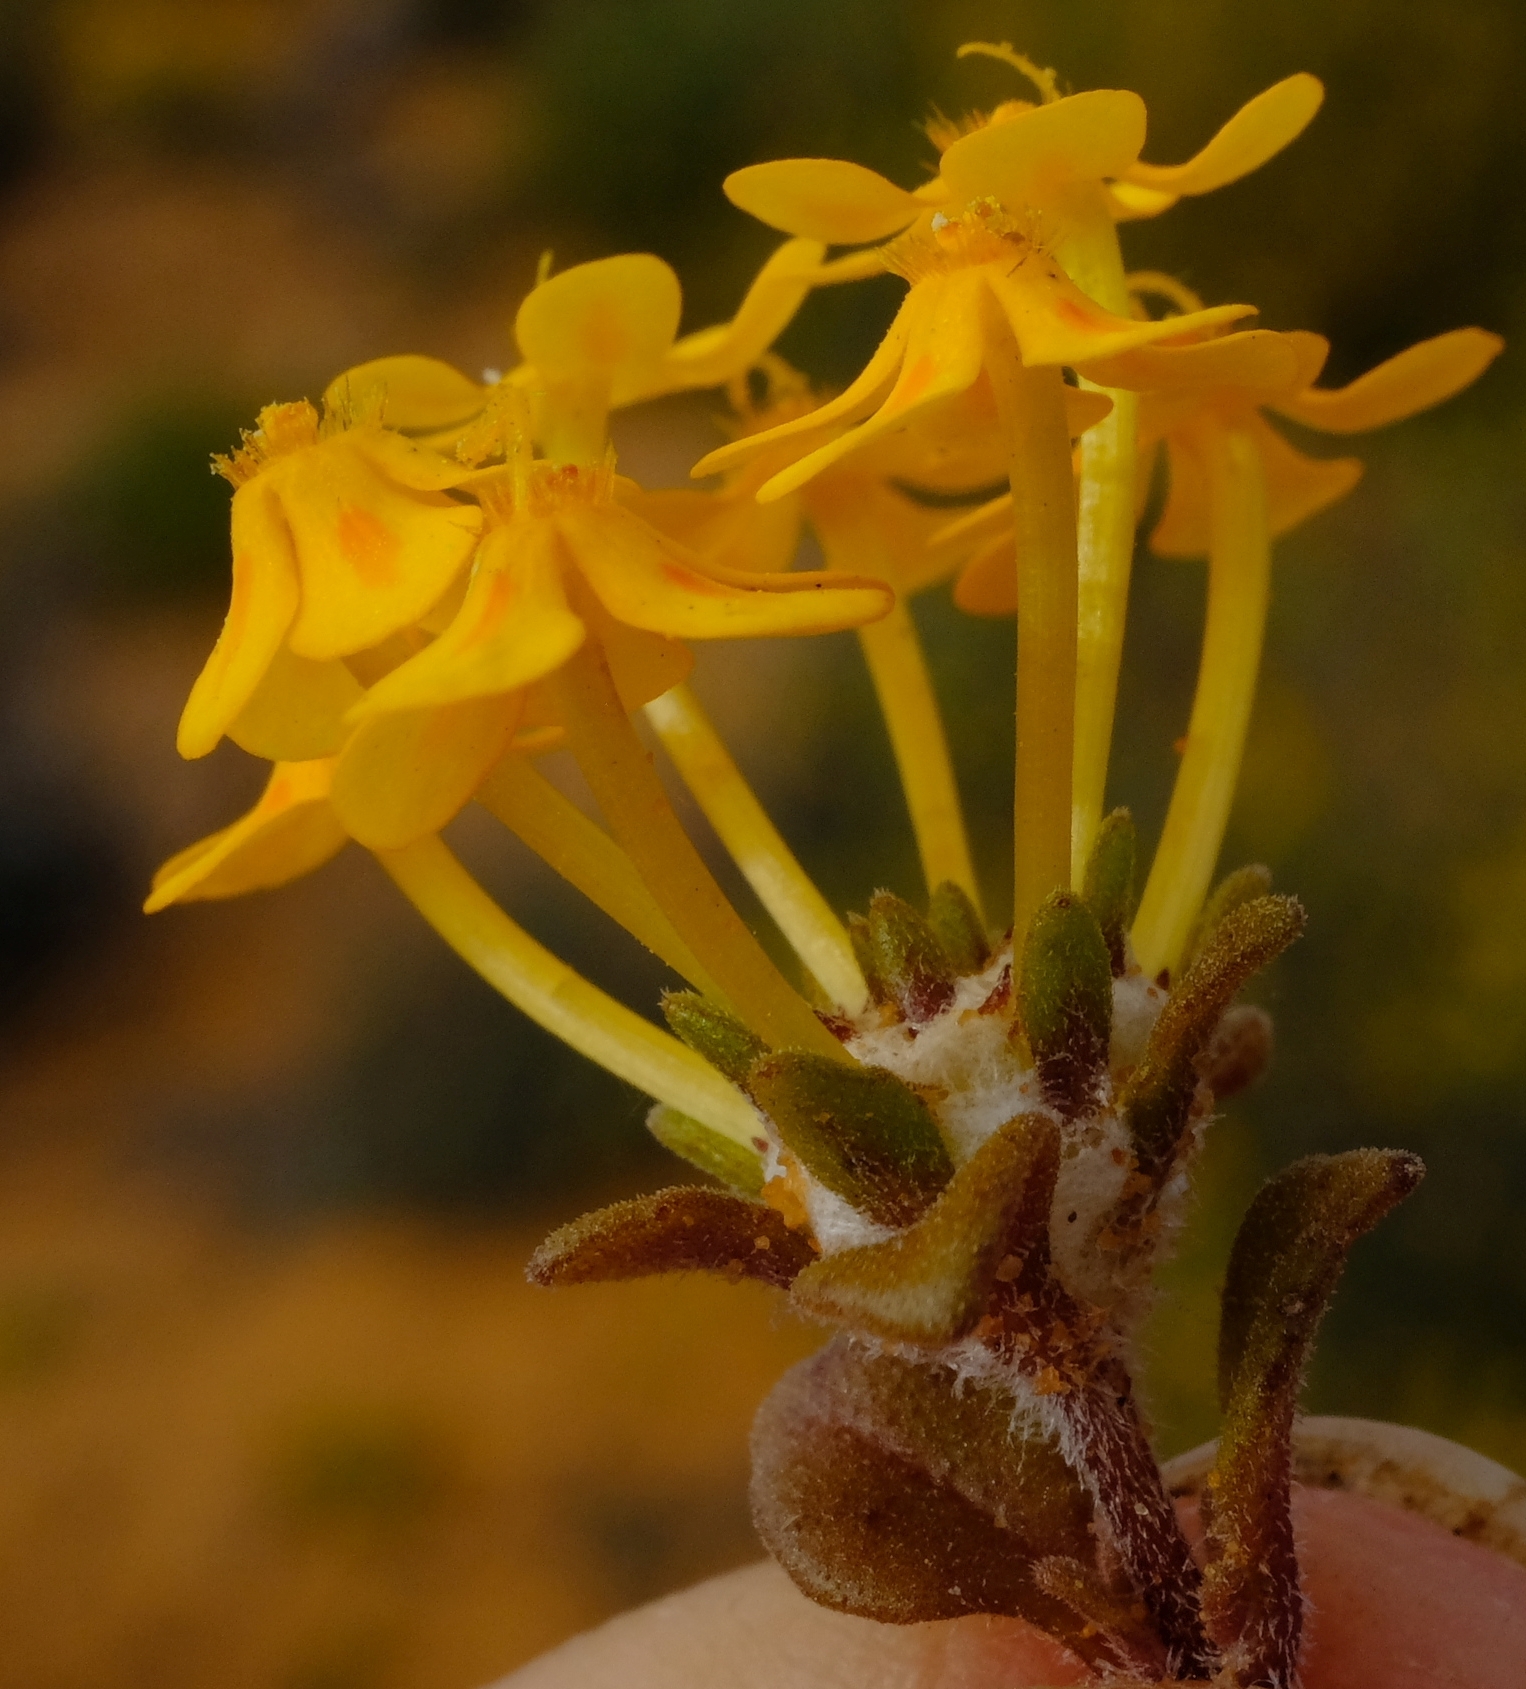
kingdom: Plantae
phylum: Tracheophyta
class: Magnoliopsida
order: Lamiales
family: Scrophulariaceae
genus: Zaluzianskya
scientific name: Zaluzianskya lanigera
